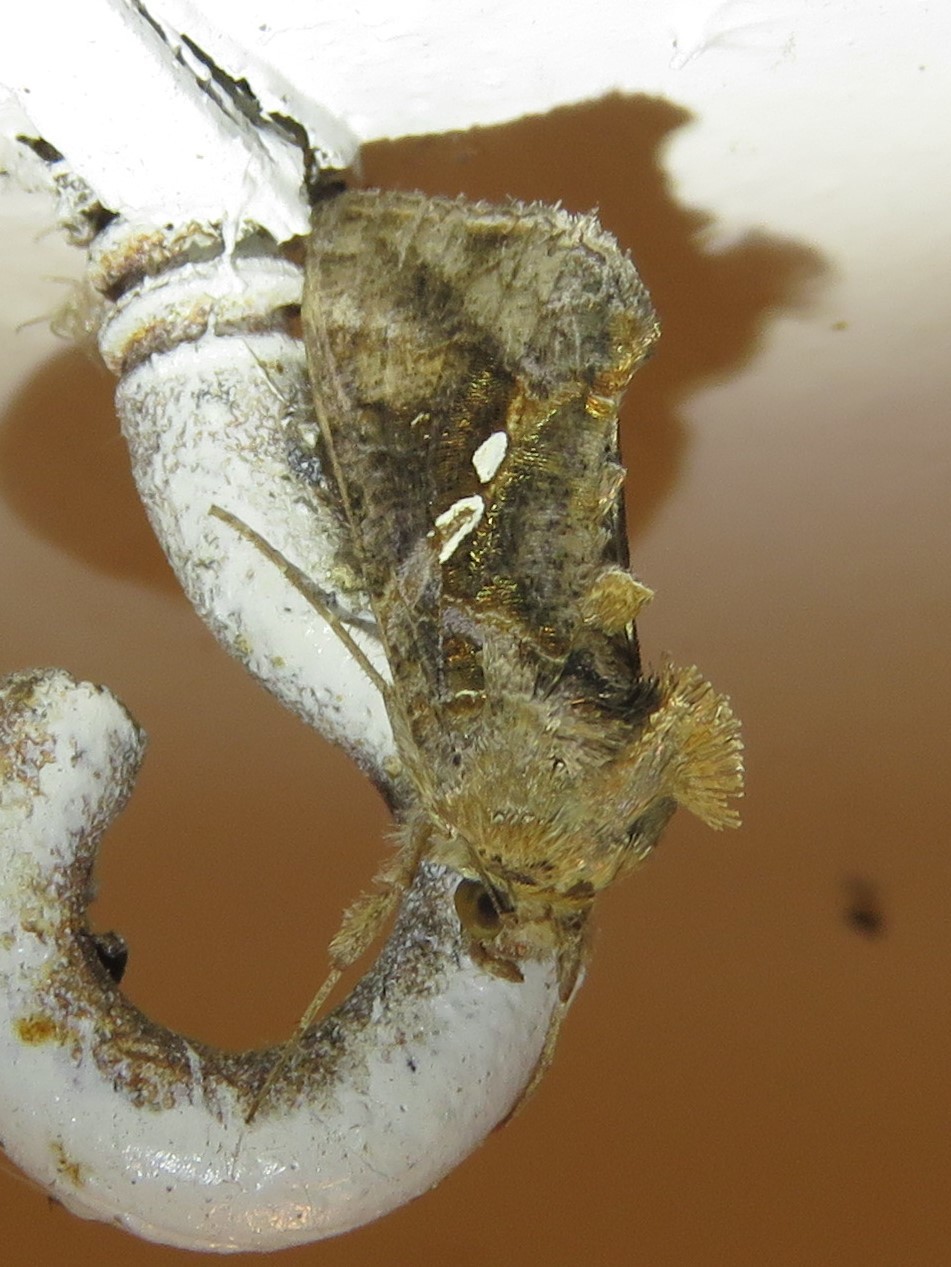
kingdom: Animalia
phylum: Arthropoda
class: Insecta
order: Lepidoptera
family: Noctuidae
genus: Chrysodeixis
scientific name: Chrysodeixis includens
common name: Cutworm moth
